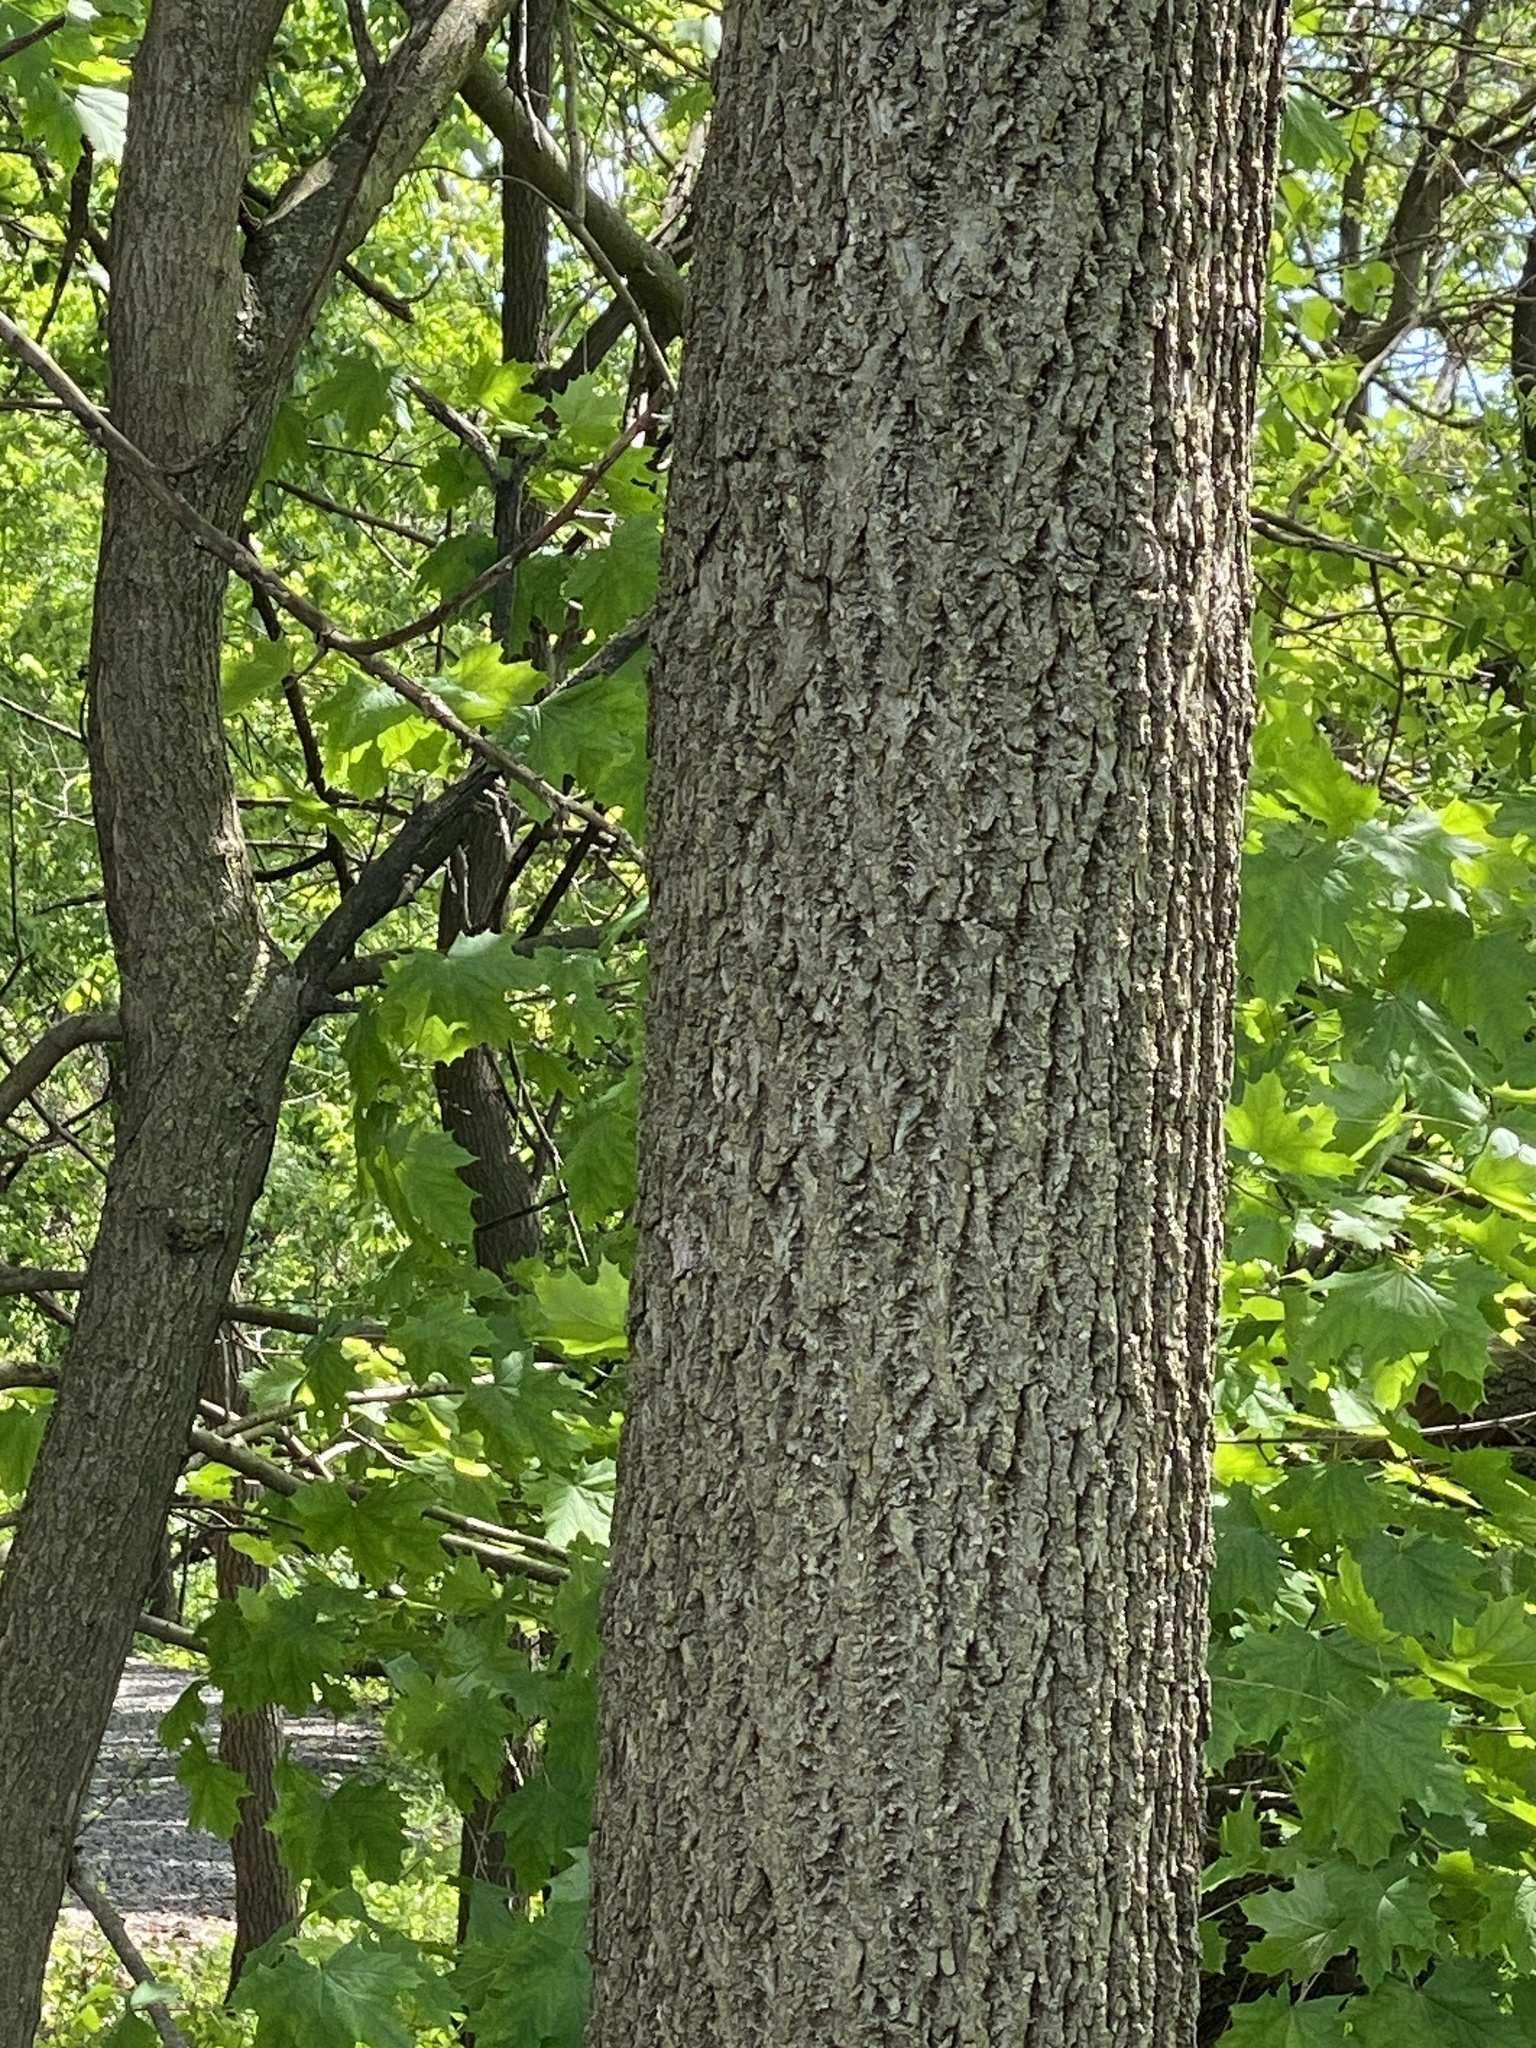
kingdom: Plantae
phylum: Tracheophyta
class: Magnoliopsida
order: Fagales
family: Juglandaceae
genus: Juglans
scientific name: Juglans nigra
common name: Black walnut
